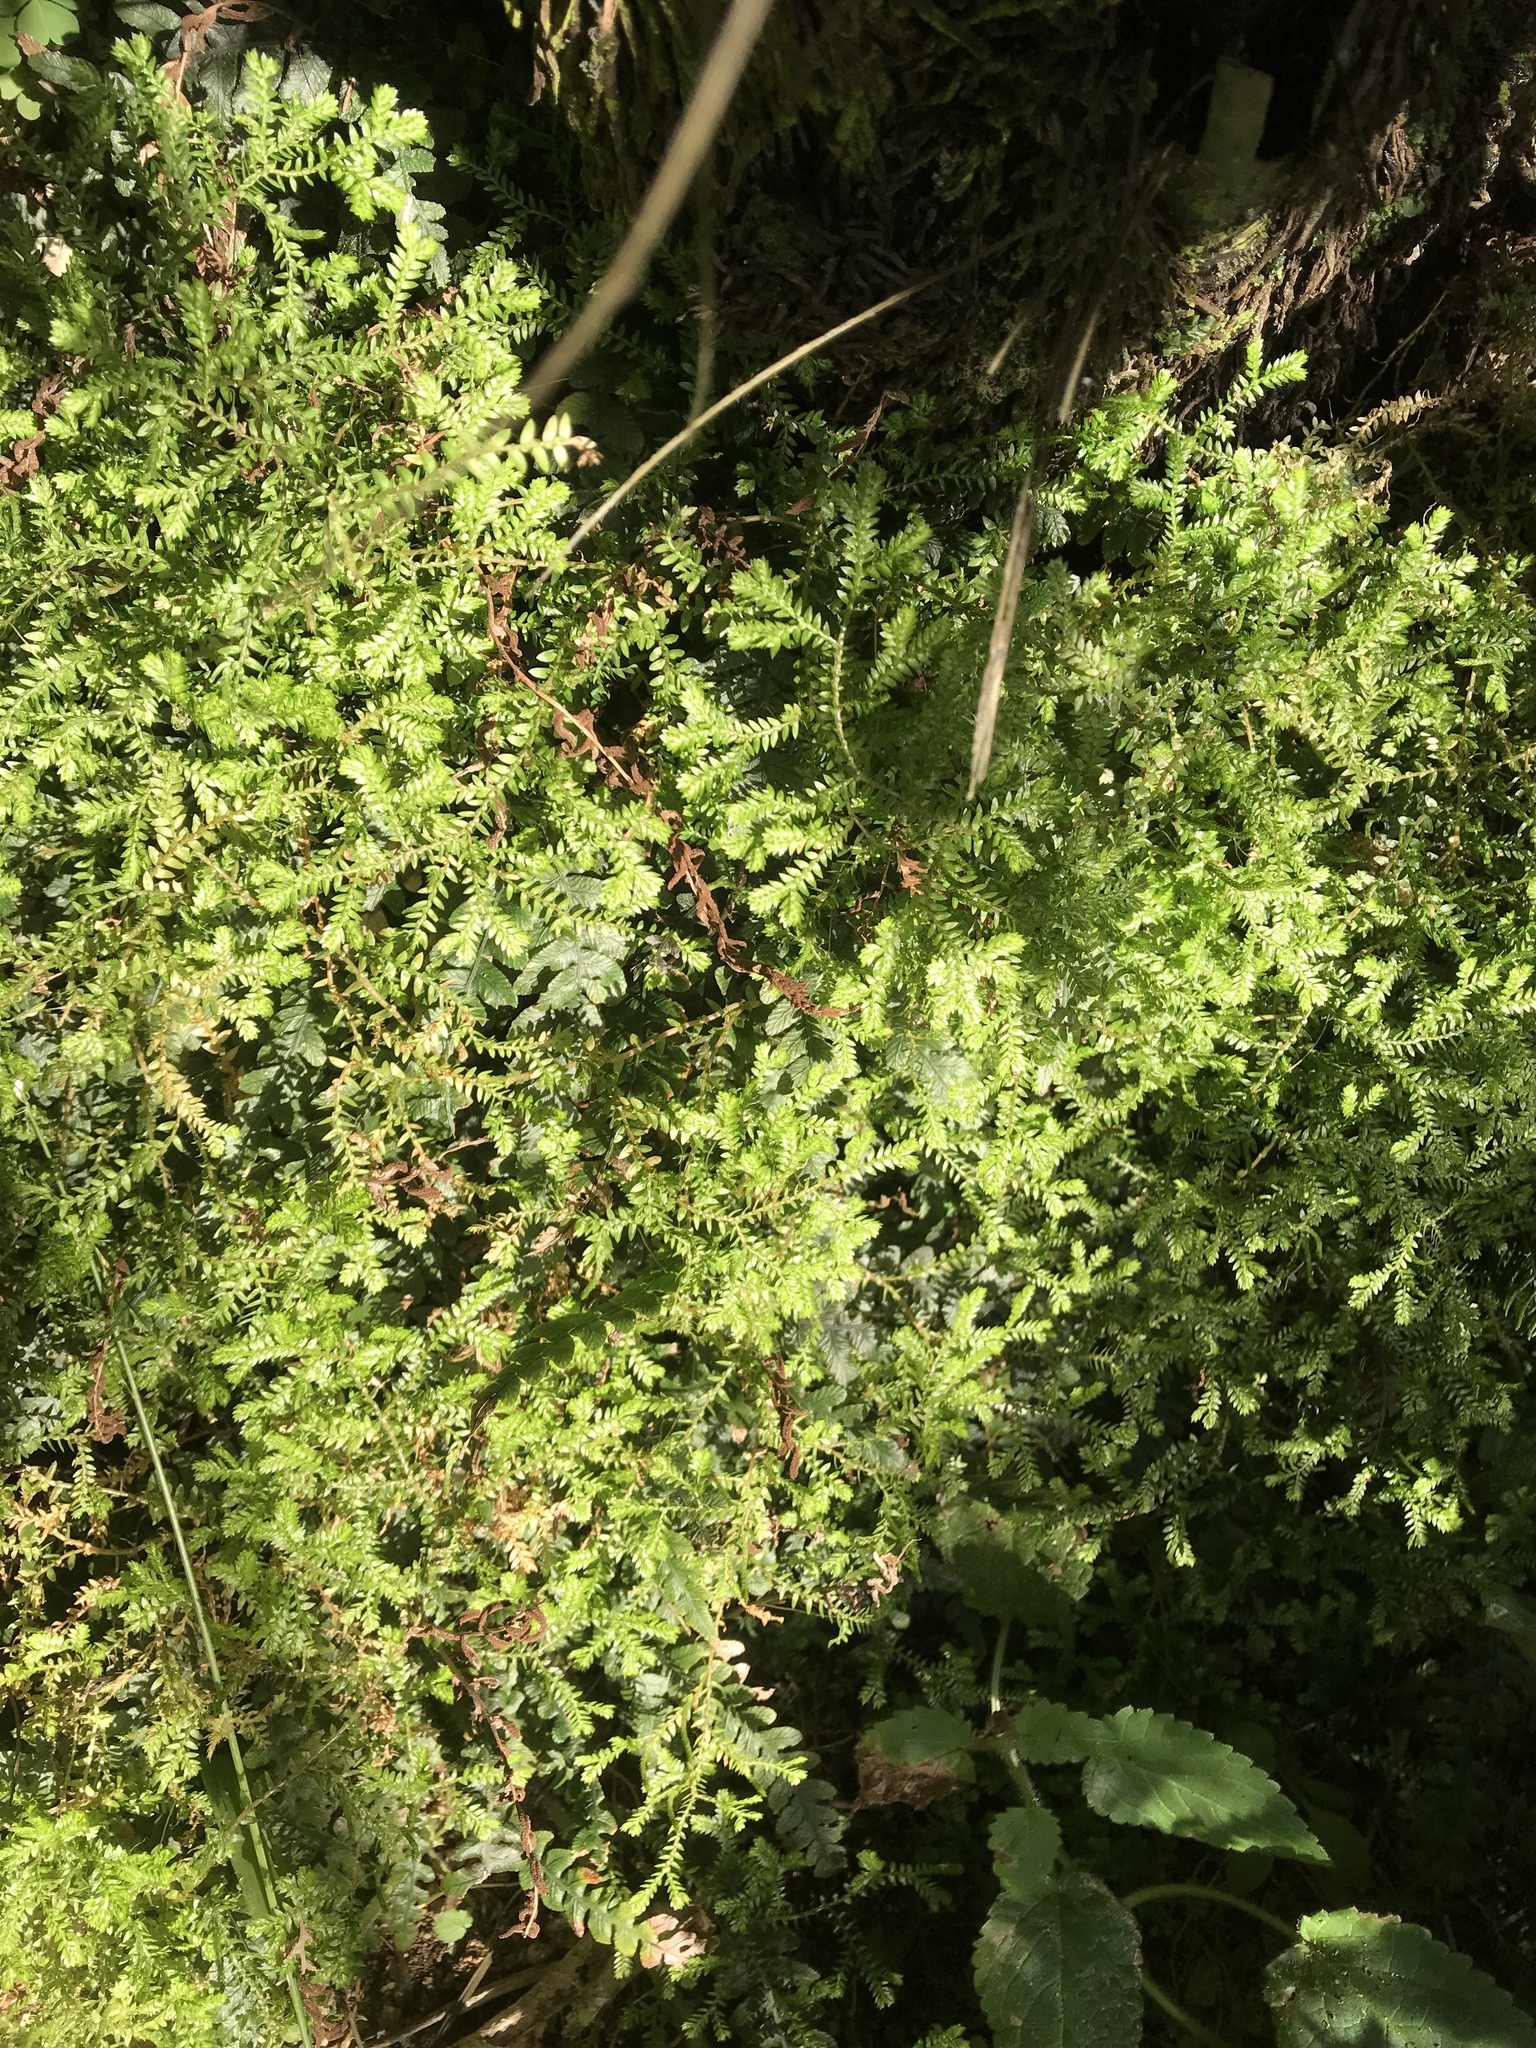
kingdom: Plantae
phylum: Tracheophyta
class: Lycopodiopsida
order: Selaginellales
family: Selaginellaceae
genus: Selaginella
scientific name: Selaginella kraussiana
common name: Krauss' spikemoss
